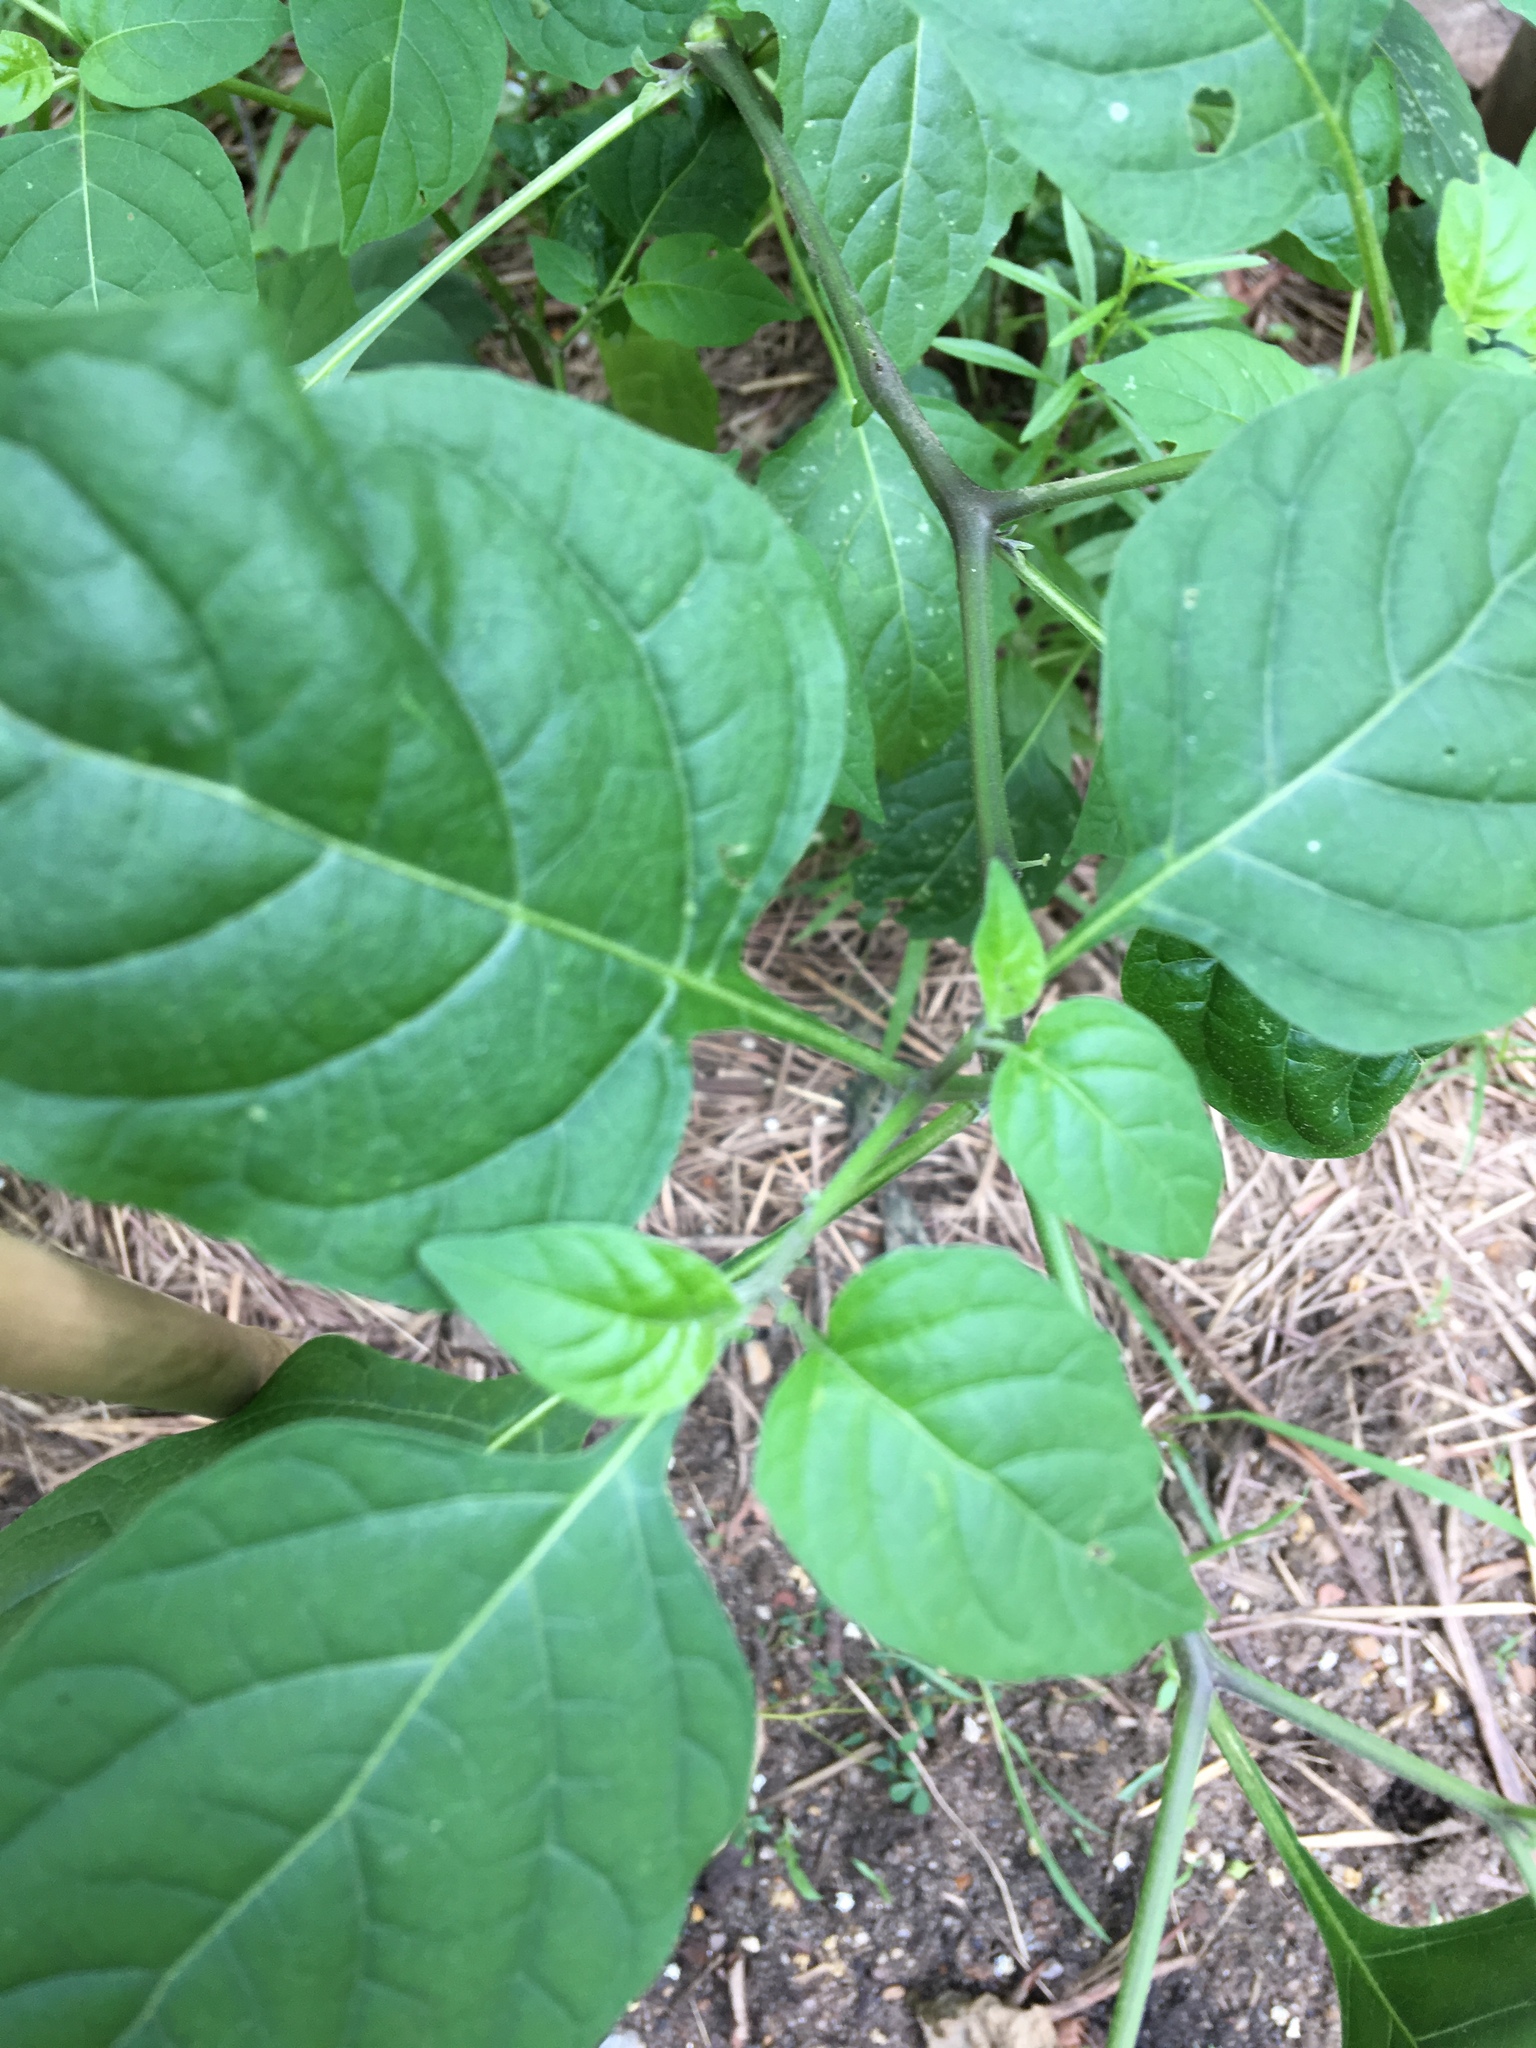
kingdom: Plantae
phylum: Tracheophyta
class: Magnoliopsida
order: Solanales
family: Solanaceae
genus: Solanum
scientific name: Solanum emulans
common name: Eastern black nightshade
